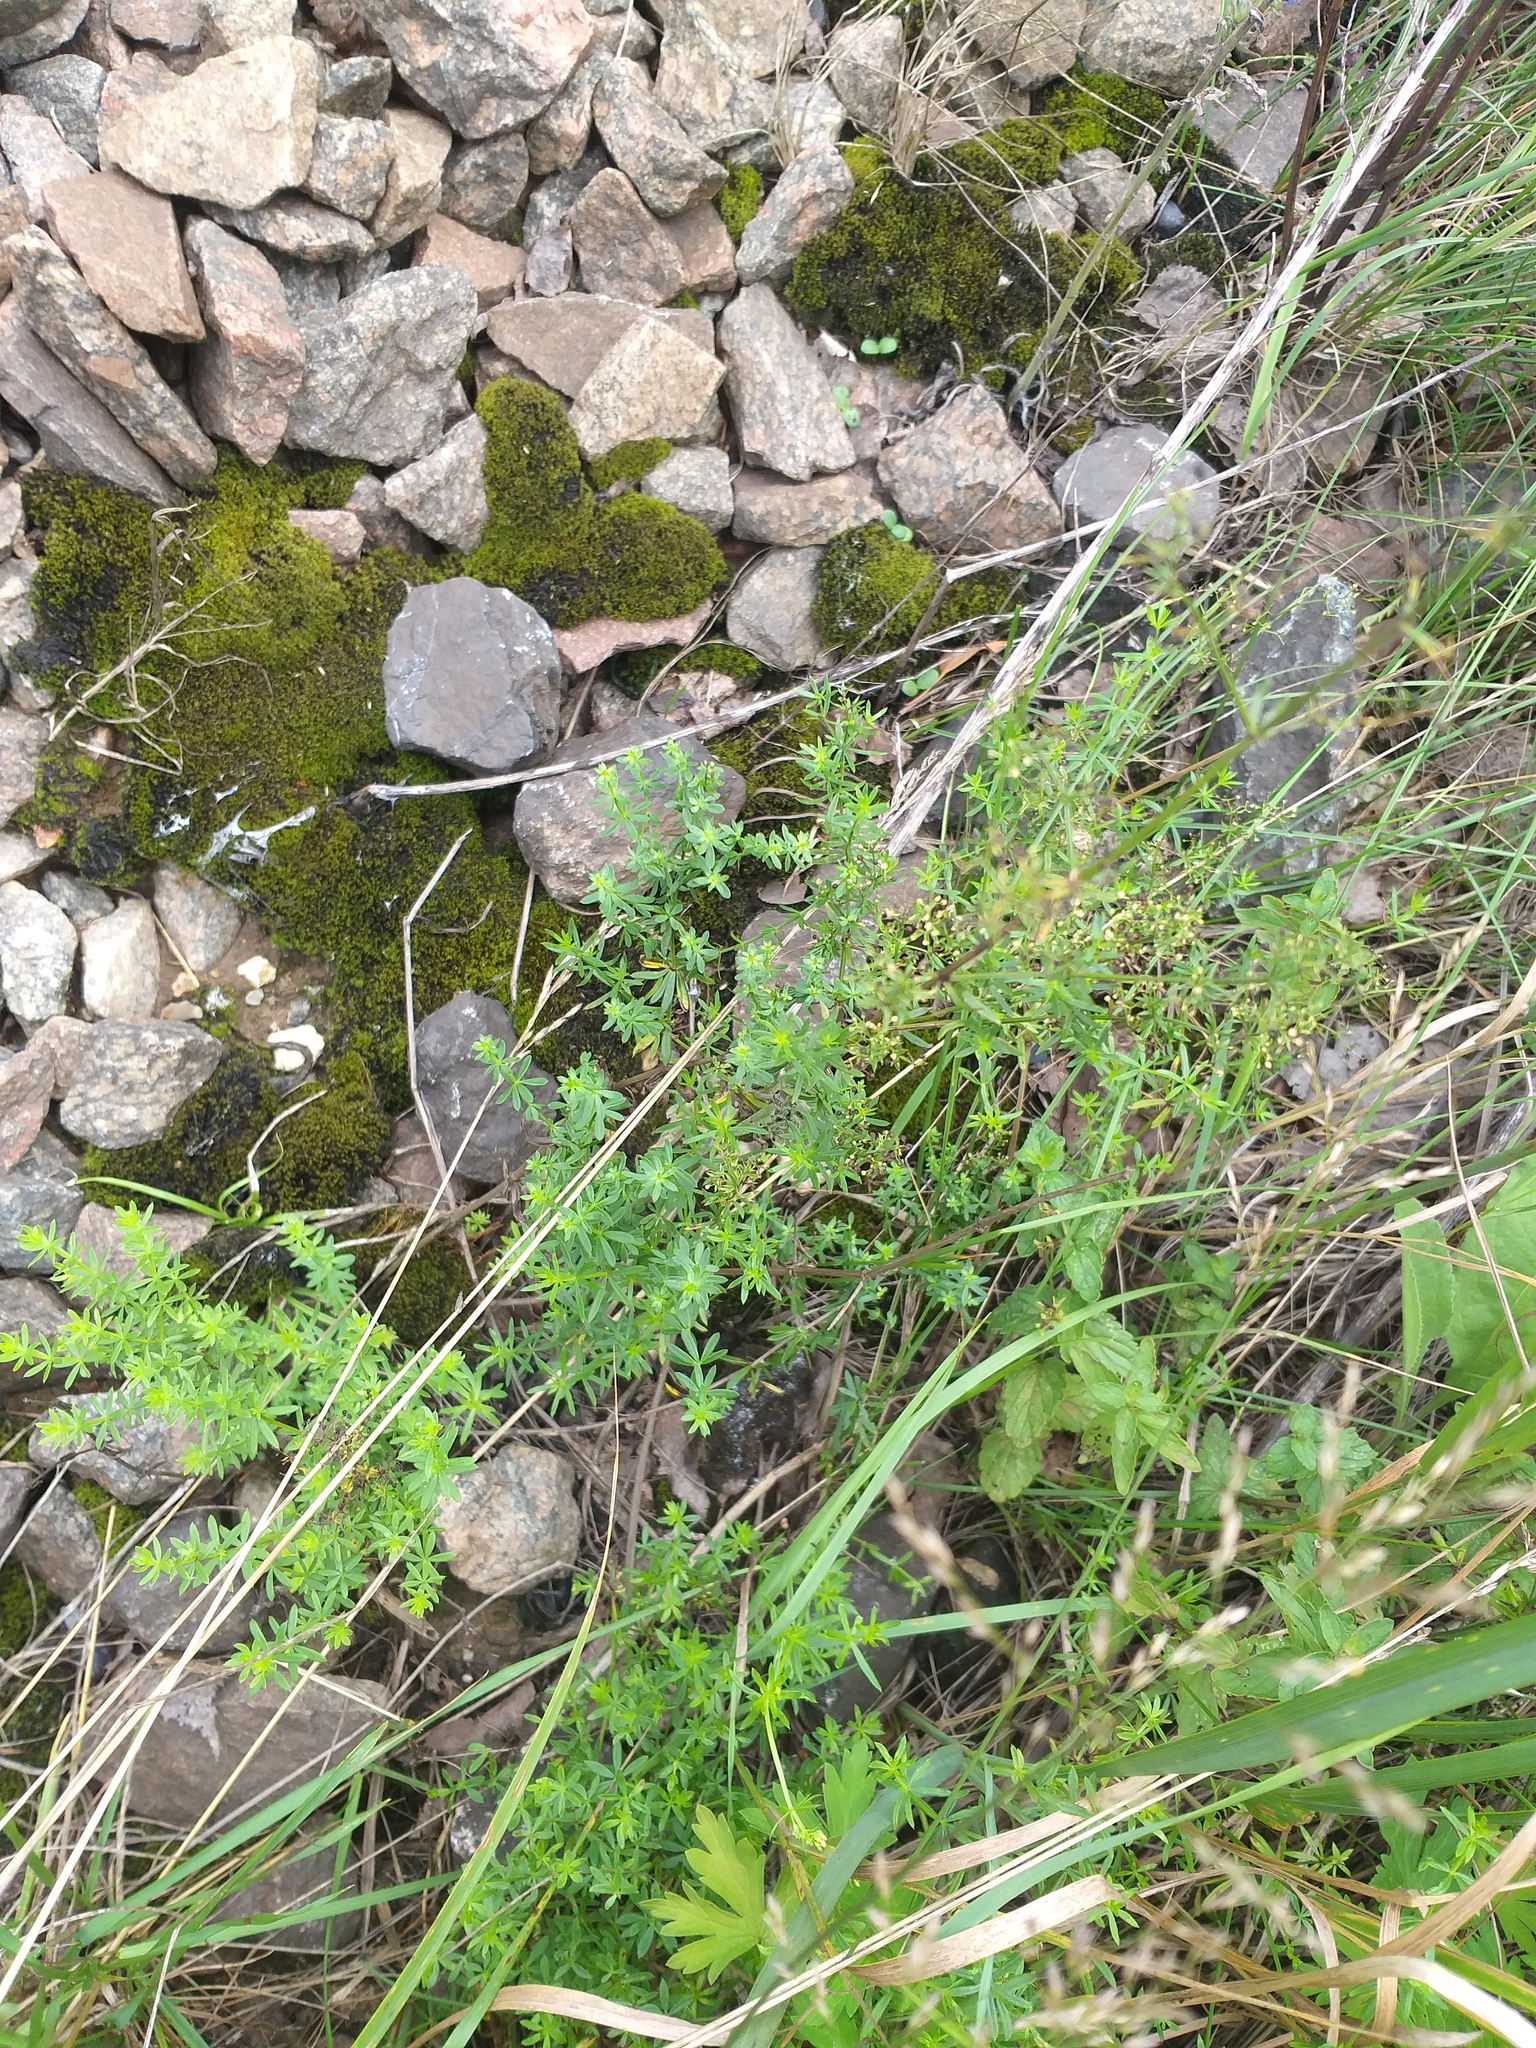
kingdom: Plantae
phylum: Tracheophyta
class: Magnoliopsida
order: Gentianales
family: Rubiaceae
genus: Galium
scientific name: Galium mollugo
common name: Hedge bedstraw
